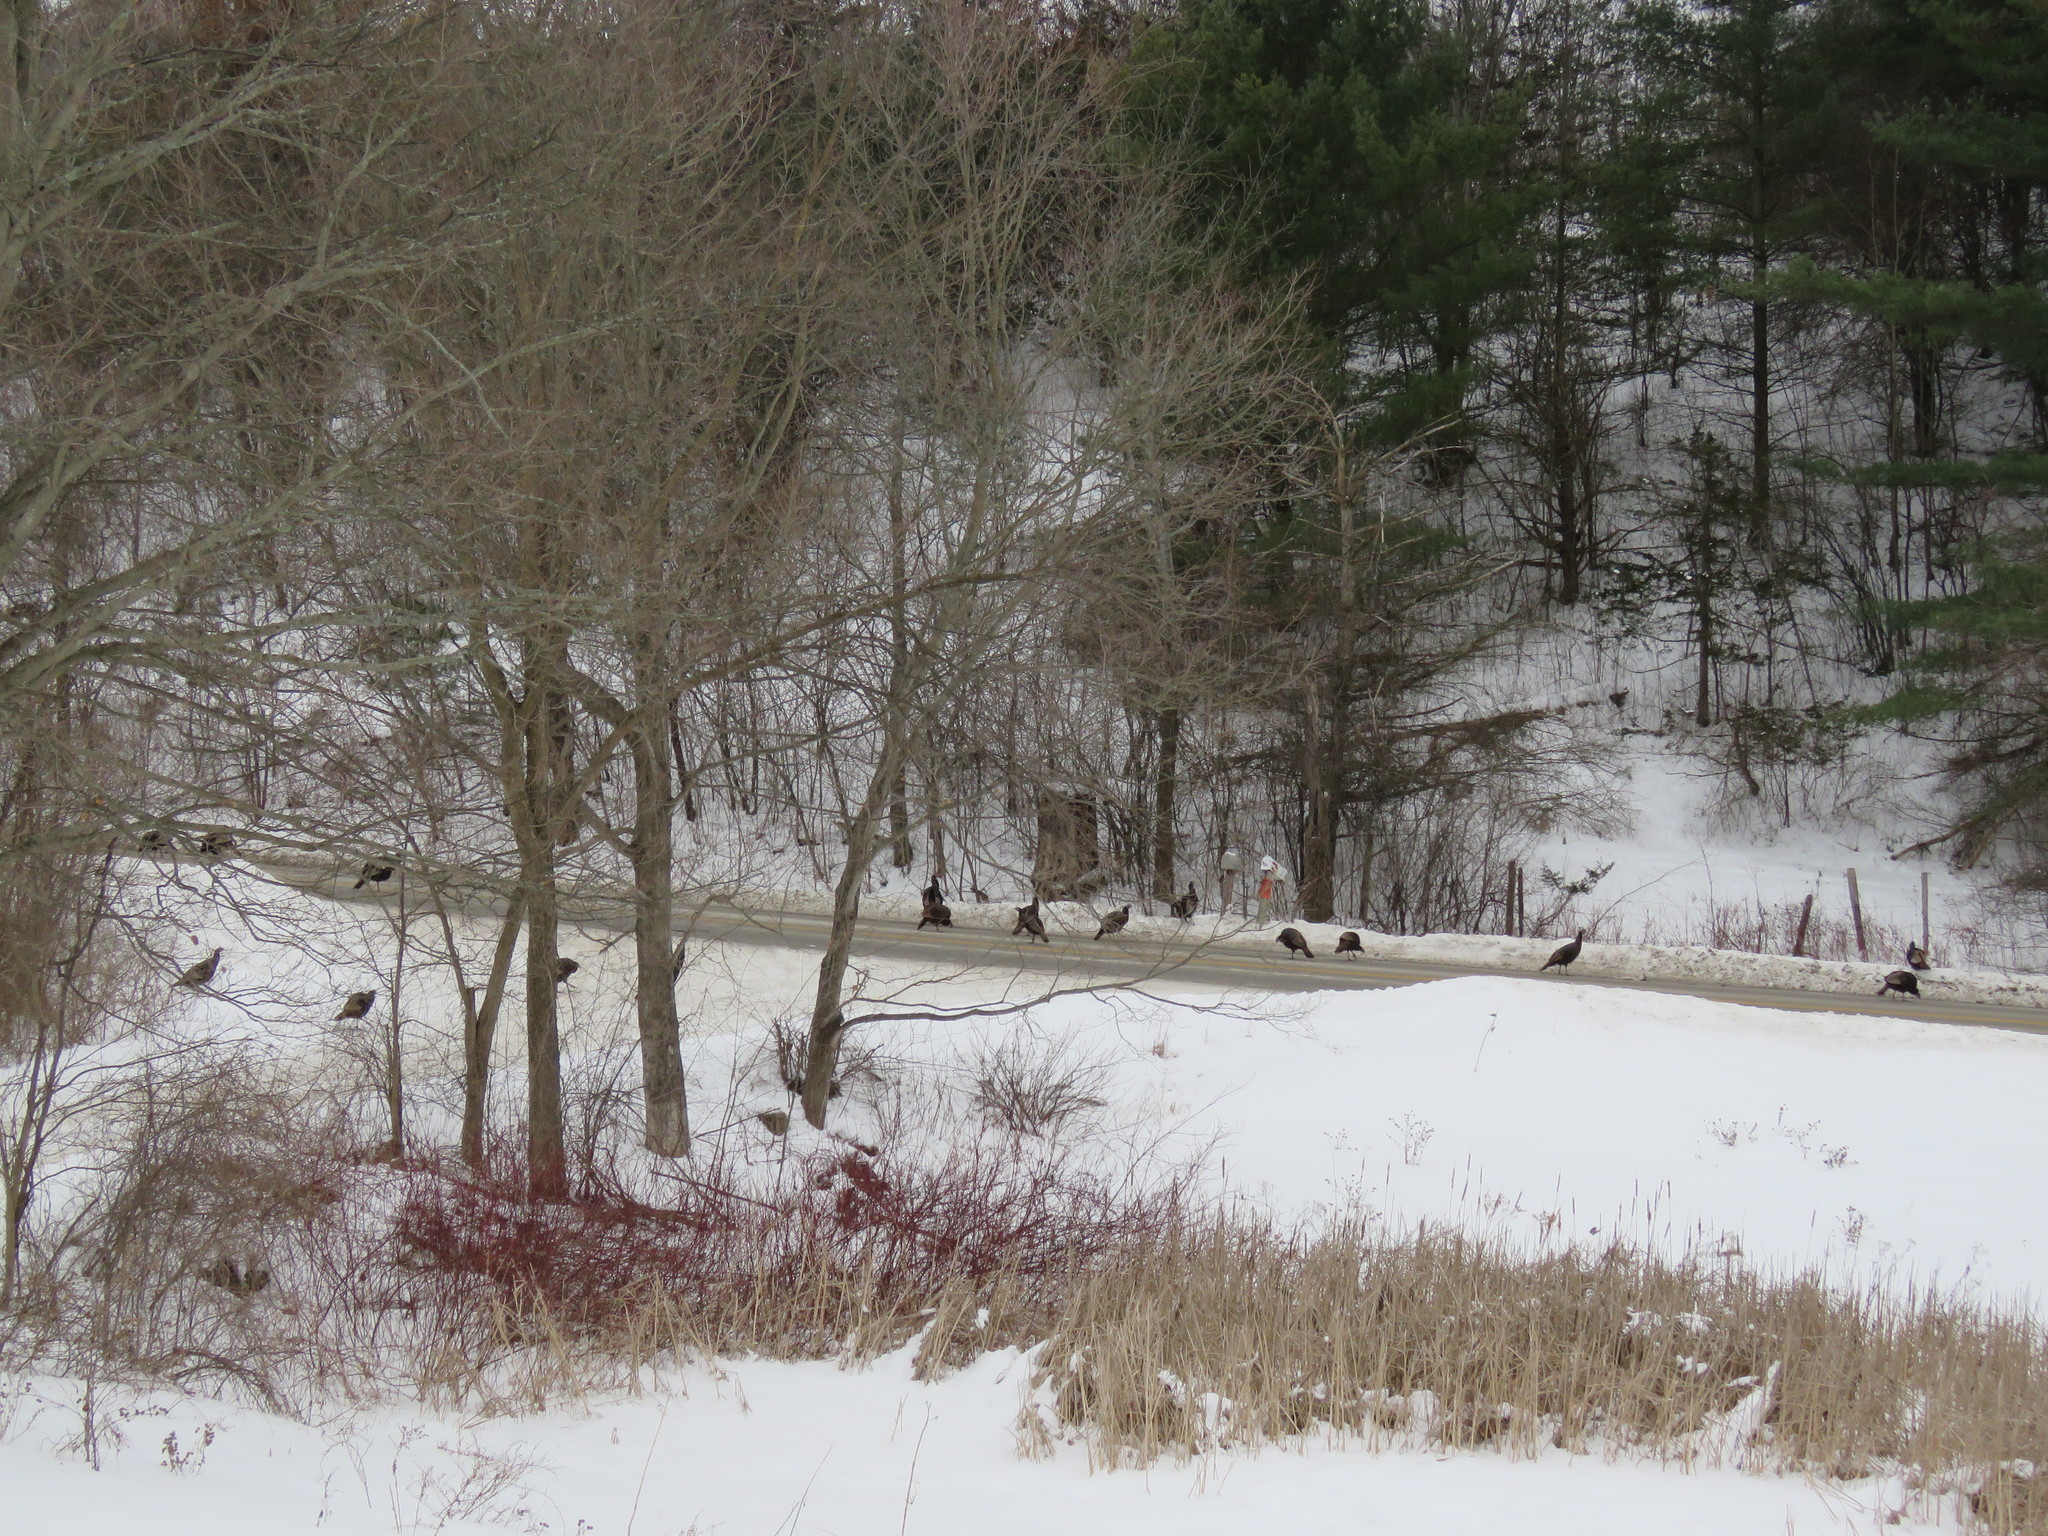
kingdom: Animalia
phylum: Chordata
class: Aves
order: Galliformes
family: Phasianidae
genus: Meleagris
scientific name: Meleagris gallopavo
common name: Wild turkey
